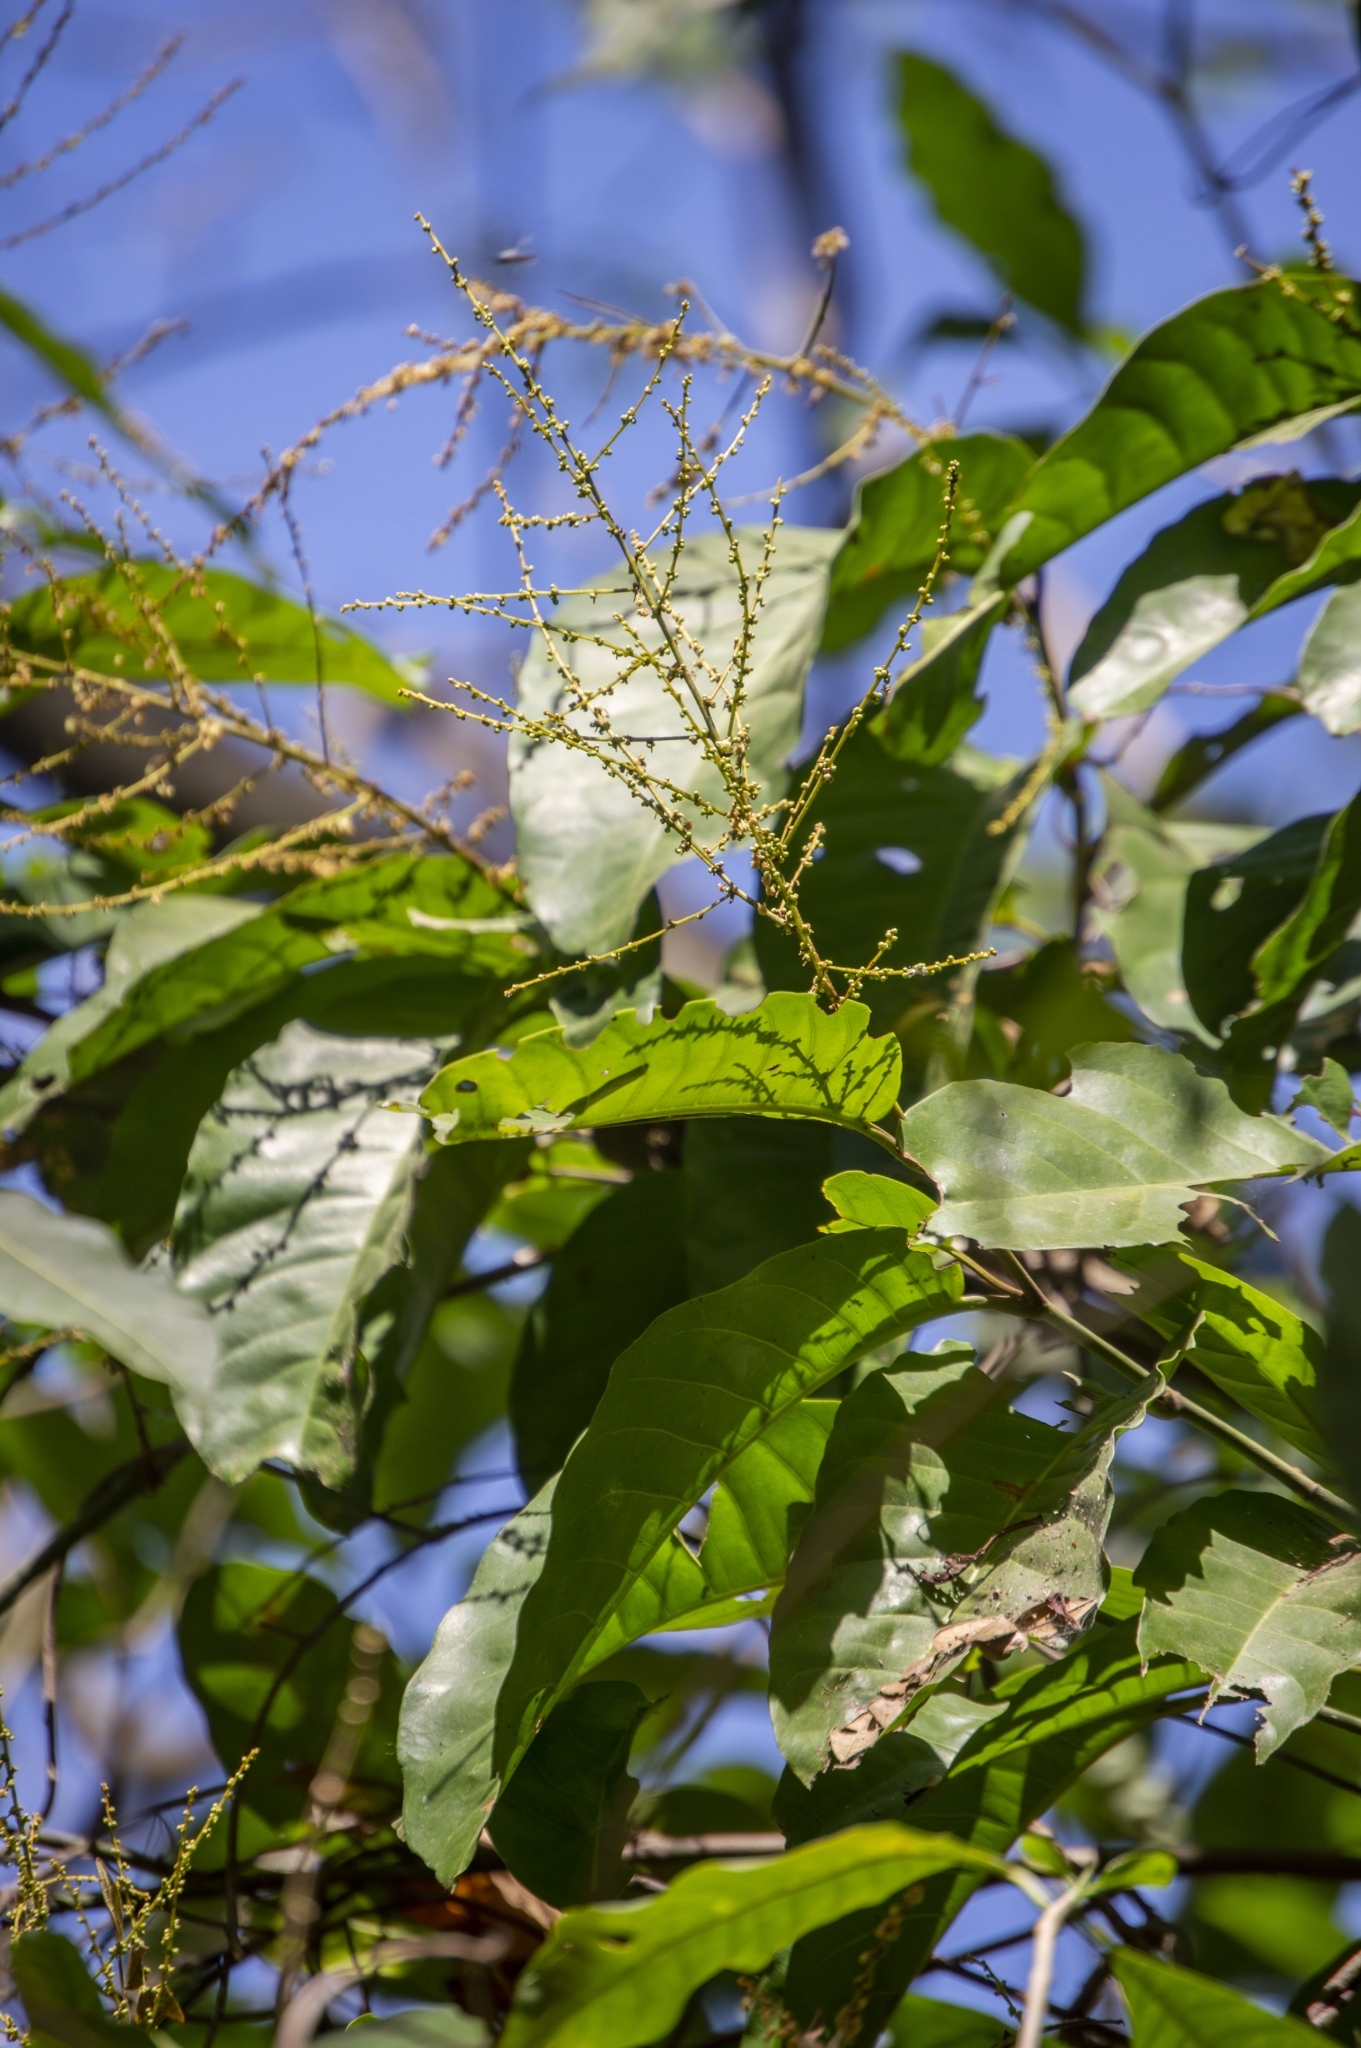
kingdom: Plantae
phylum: Tracheophyta
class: Magnoliopsida
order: Caryophyllales
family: Polygonaceae
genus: Symmeria
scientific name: Symmeria paniculata
